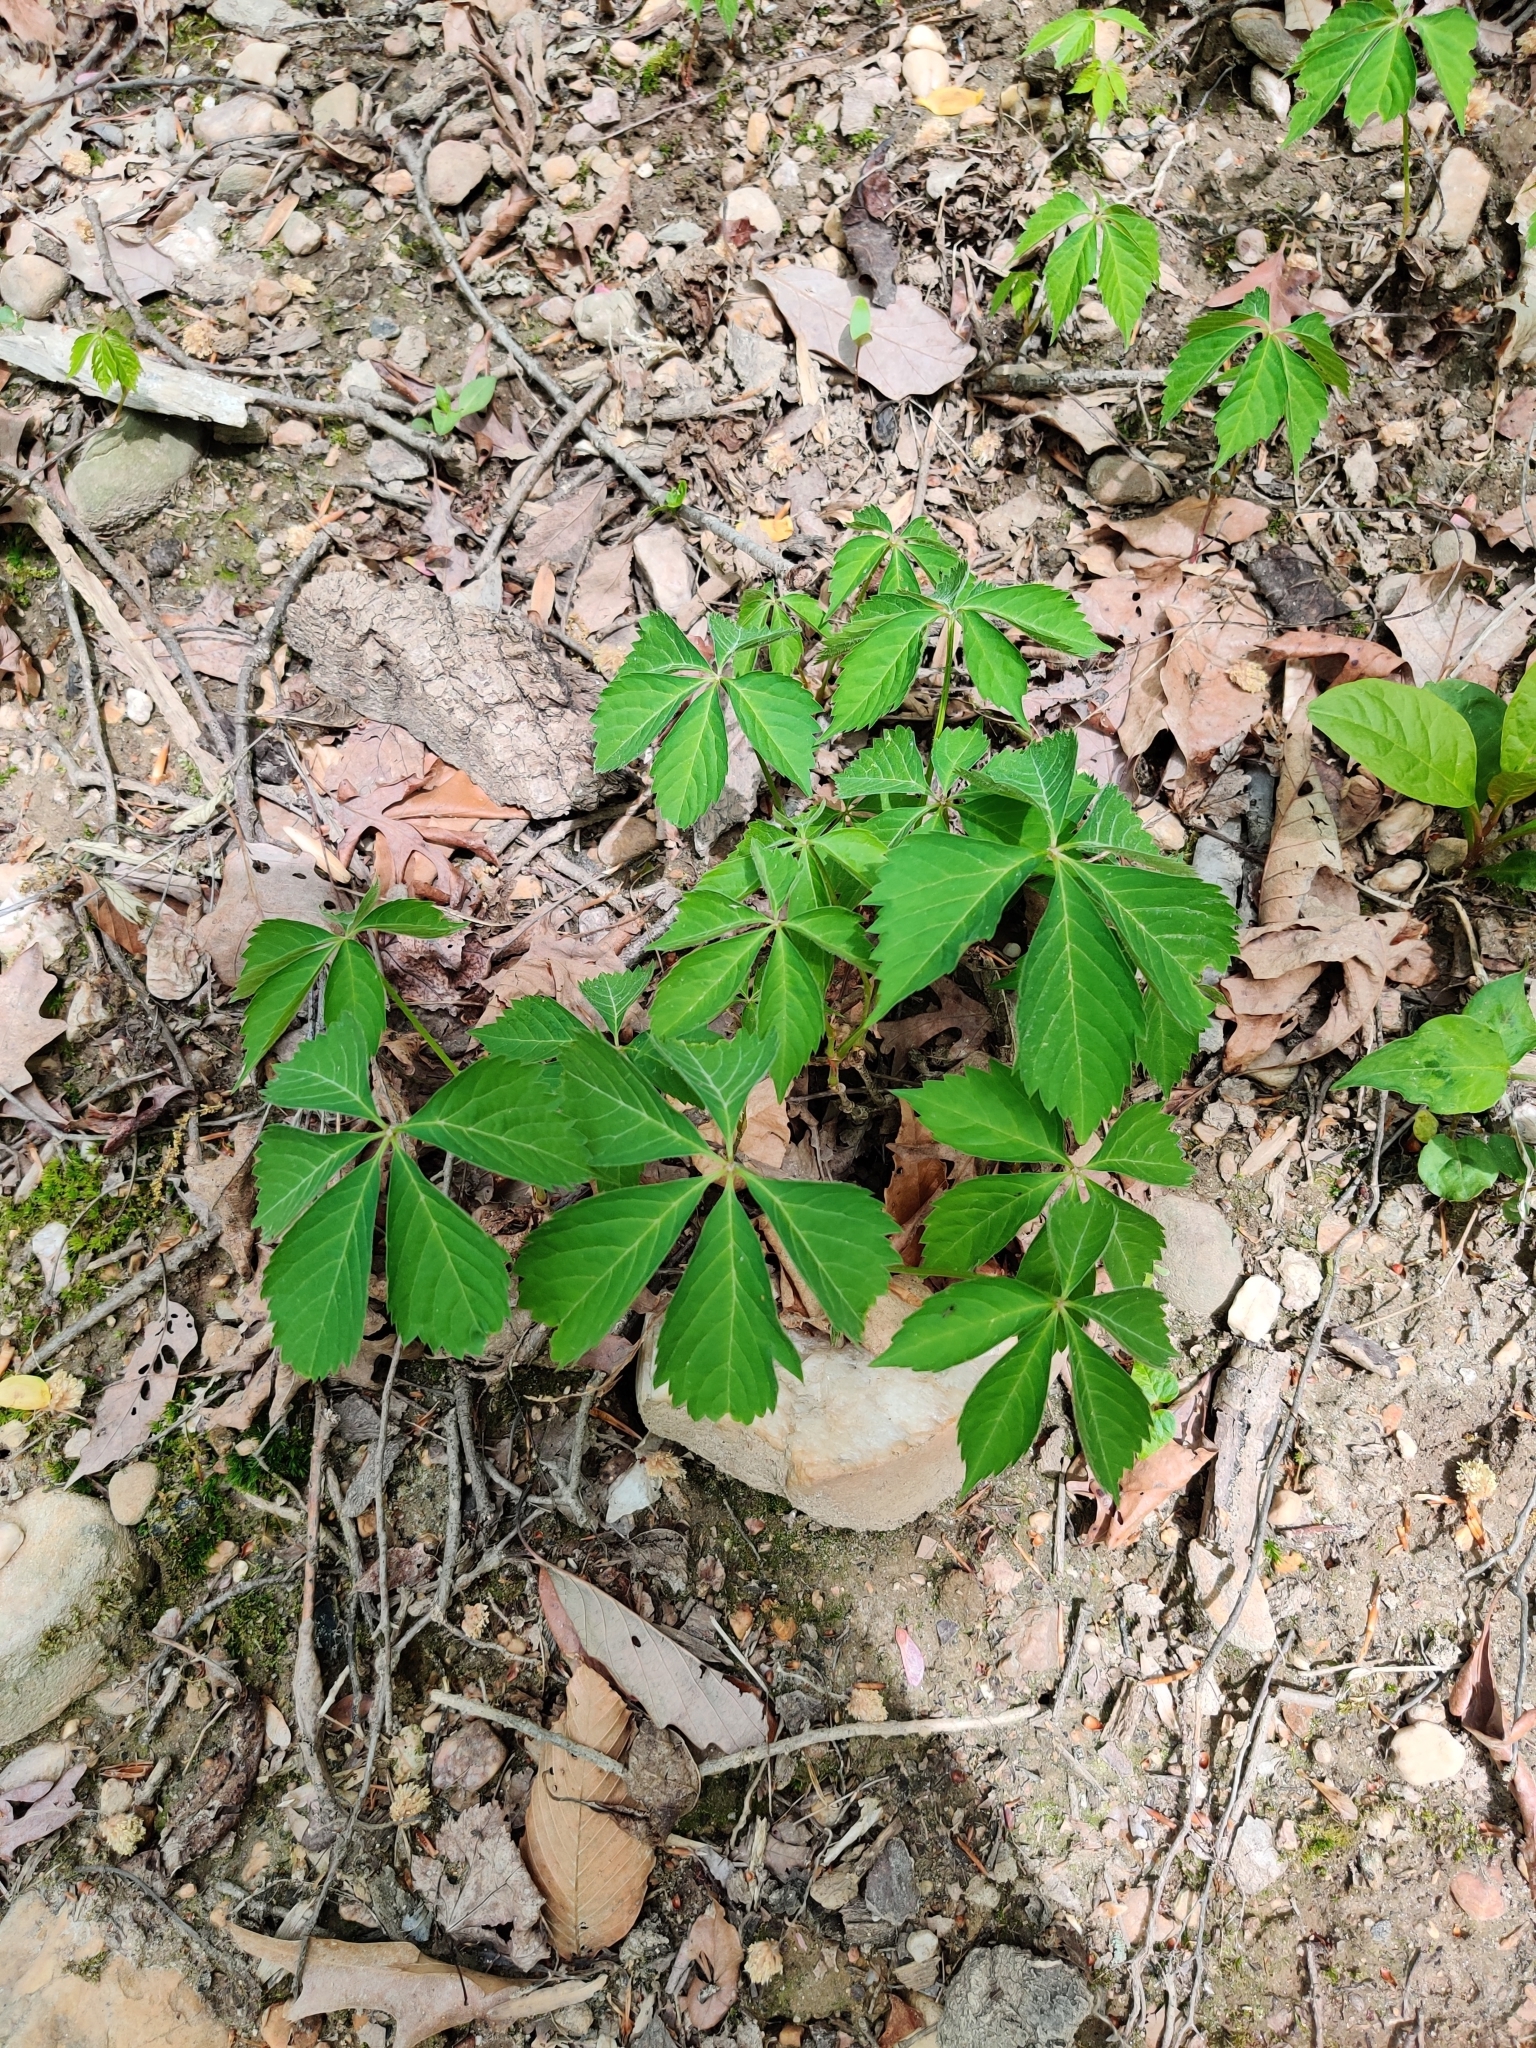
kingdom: Plantae
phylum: Tracheophyta
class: Magnoliopsida
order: Vitales
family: Vitaceae
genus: Parthenocissus
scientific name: Parthenocissus quinquefolia
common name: Virginia-creeper
